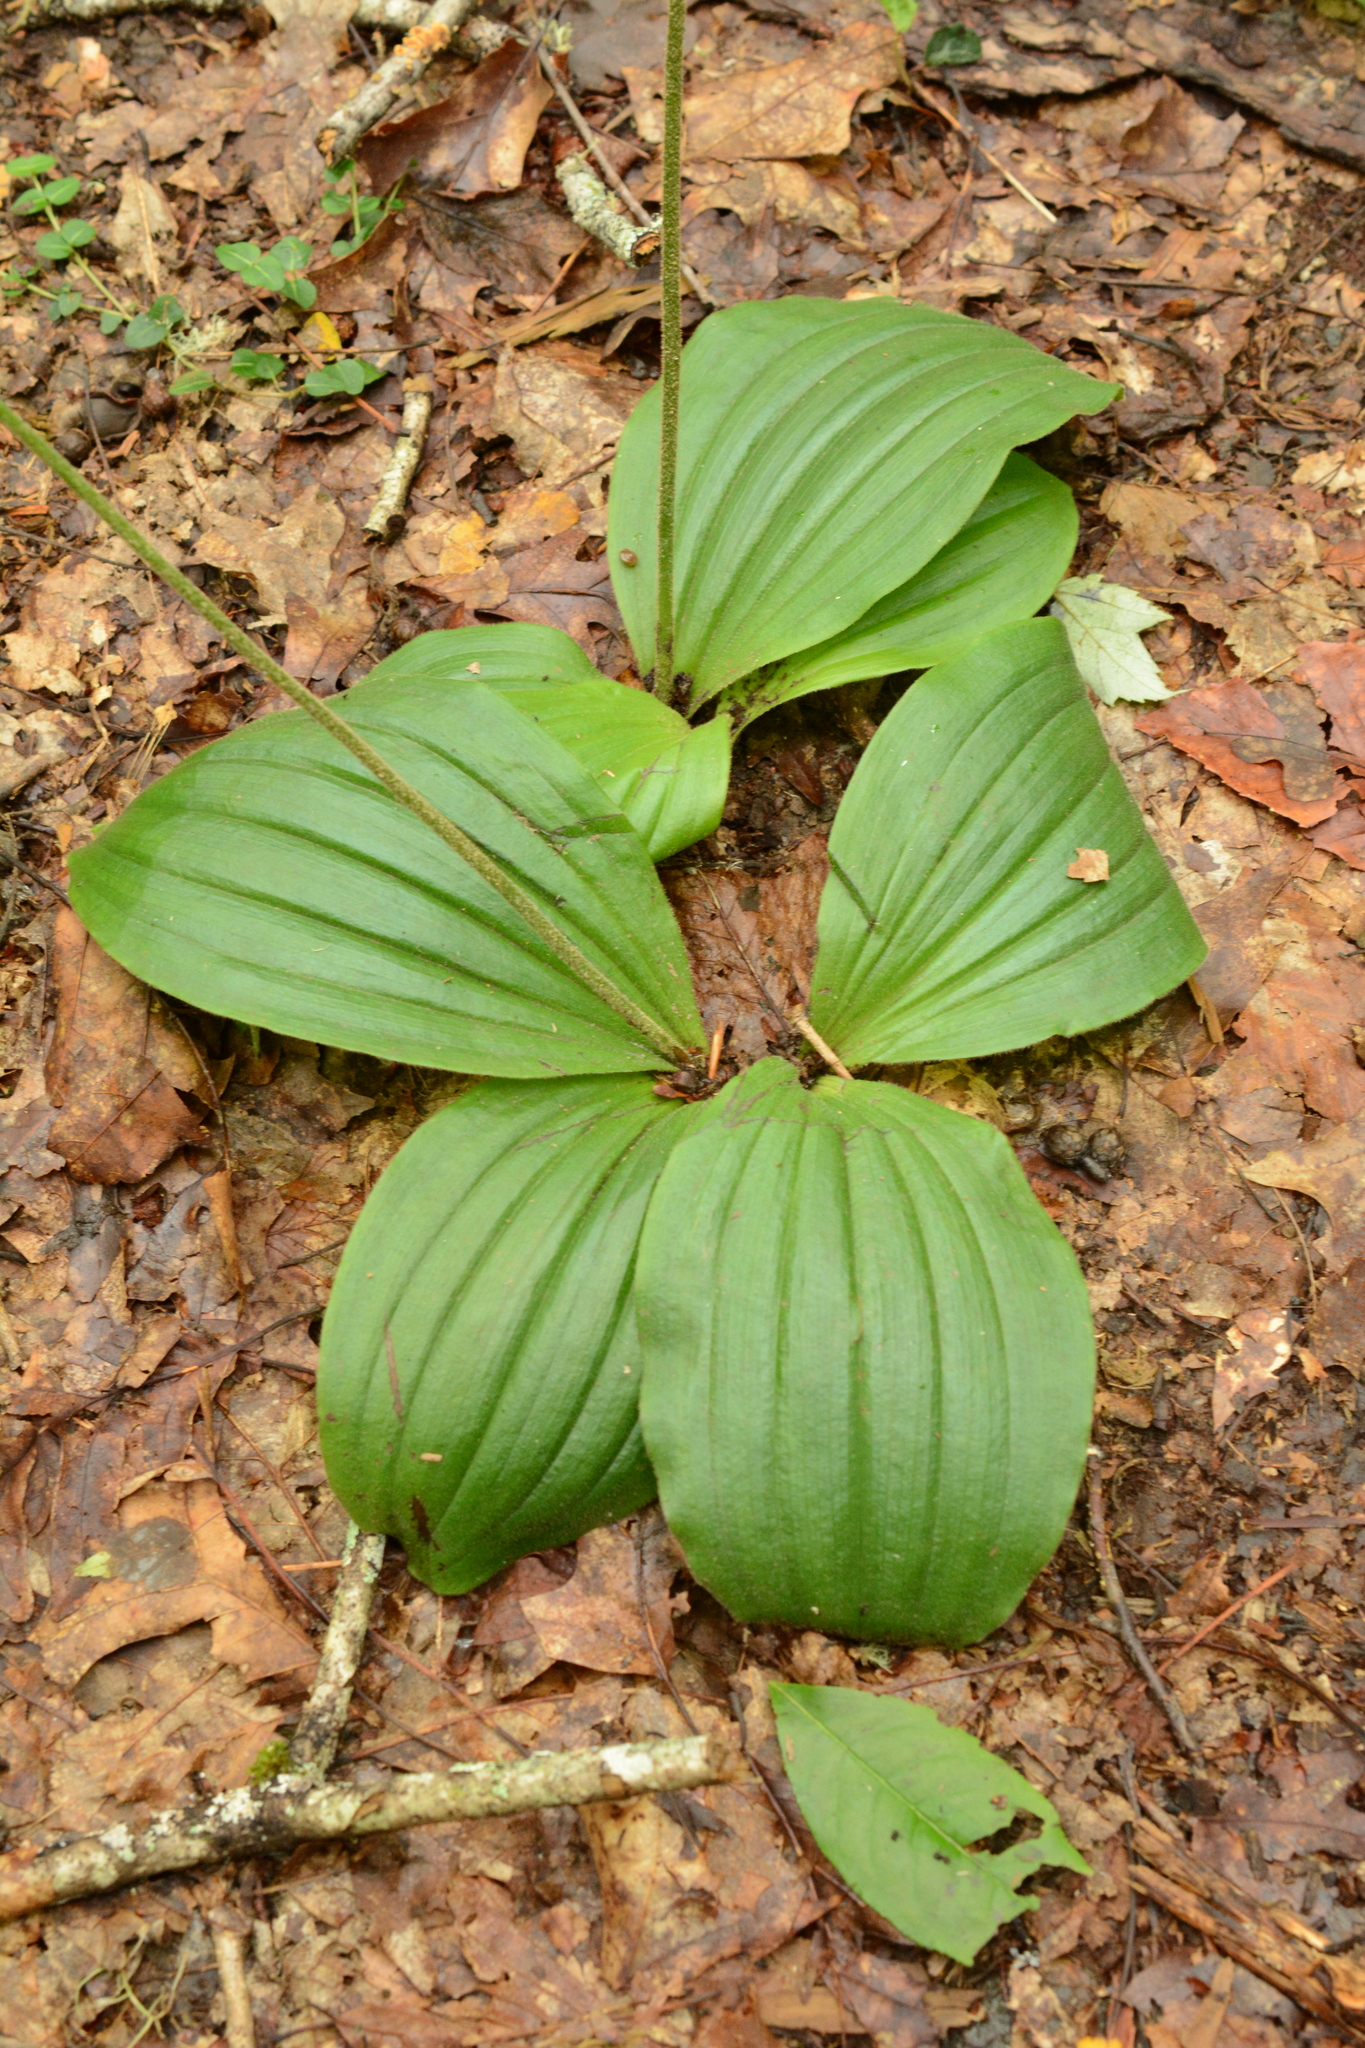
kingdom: Plantae
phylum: Tracheophyta
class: Liliopsida
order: Asparagales
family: Orchidaceae
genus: Cypripedium
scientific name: Cypripedium acaule
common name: Pink lady's-slipper
